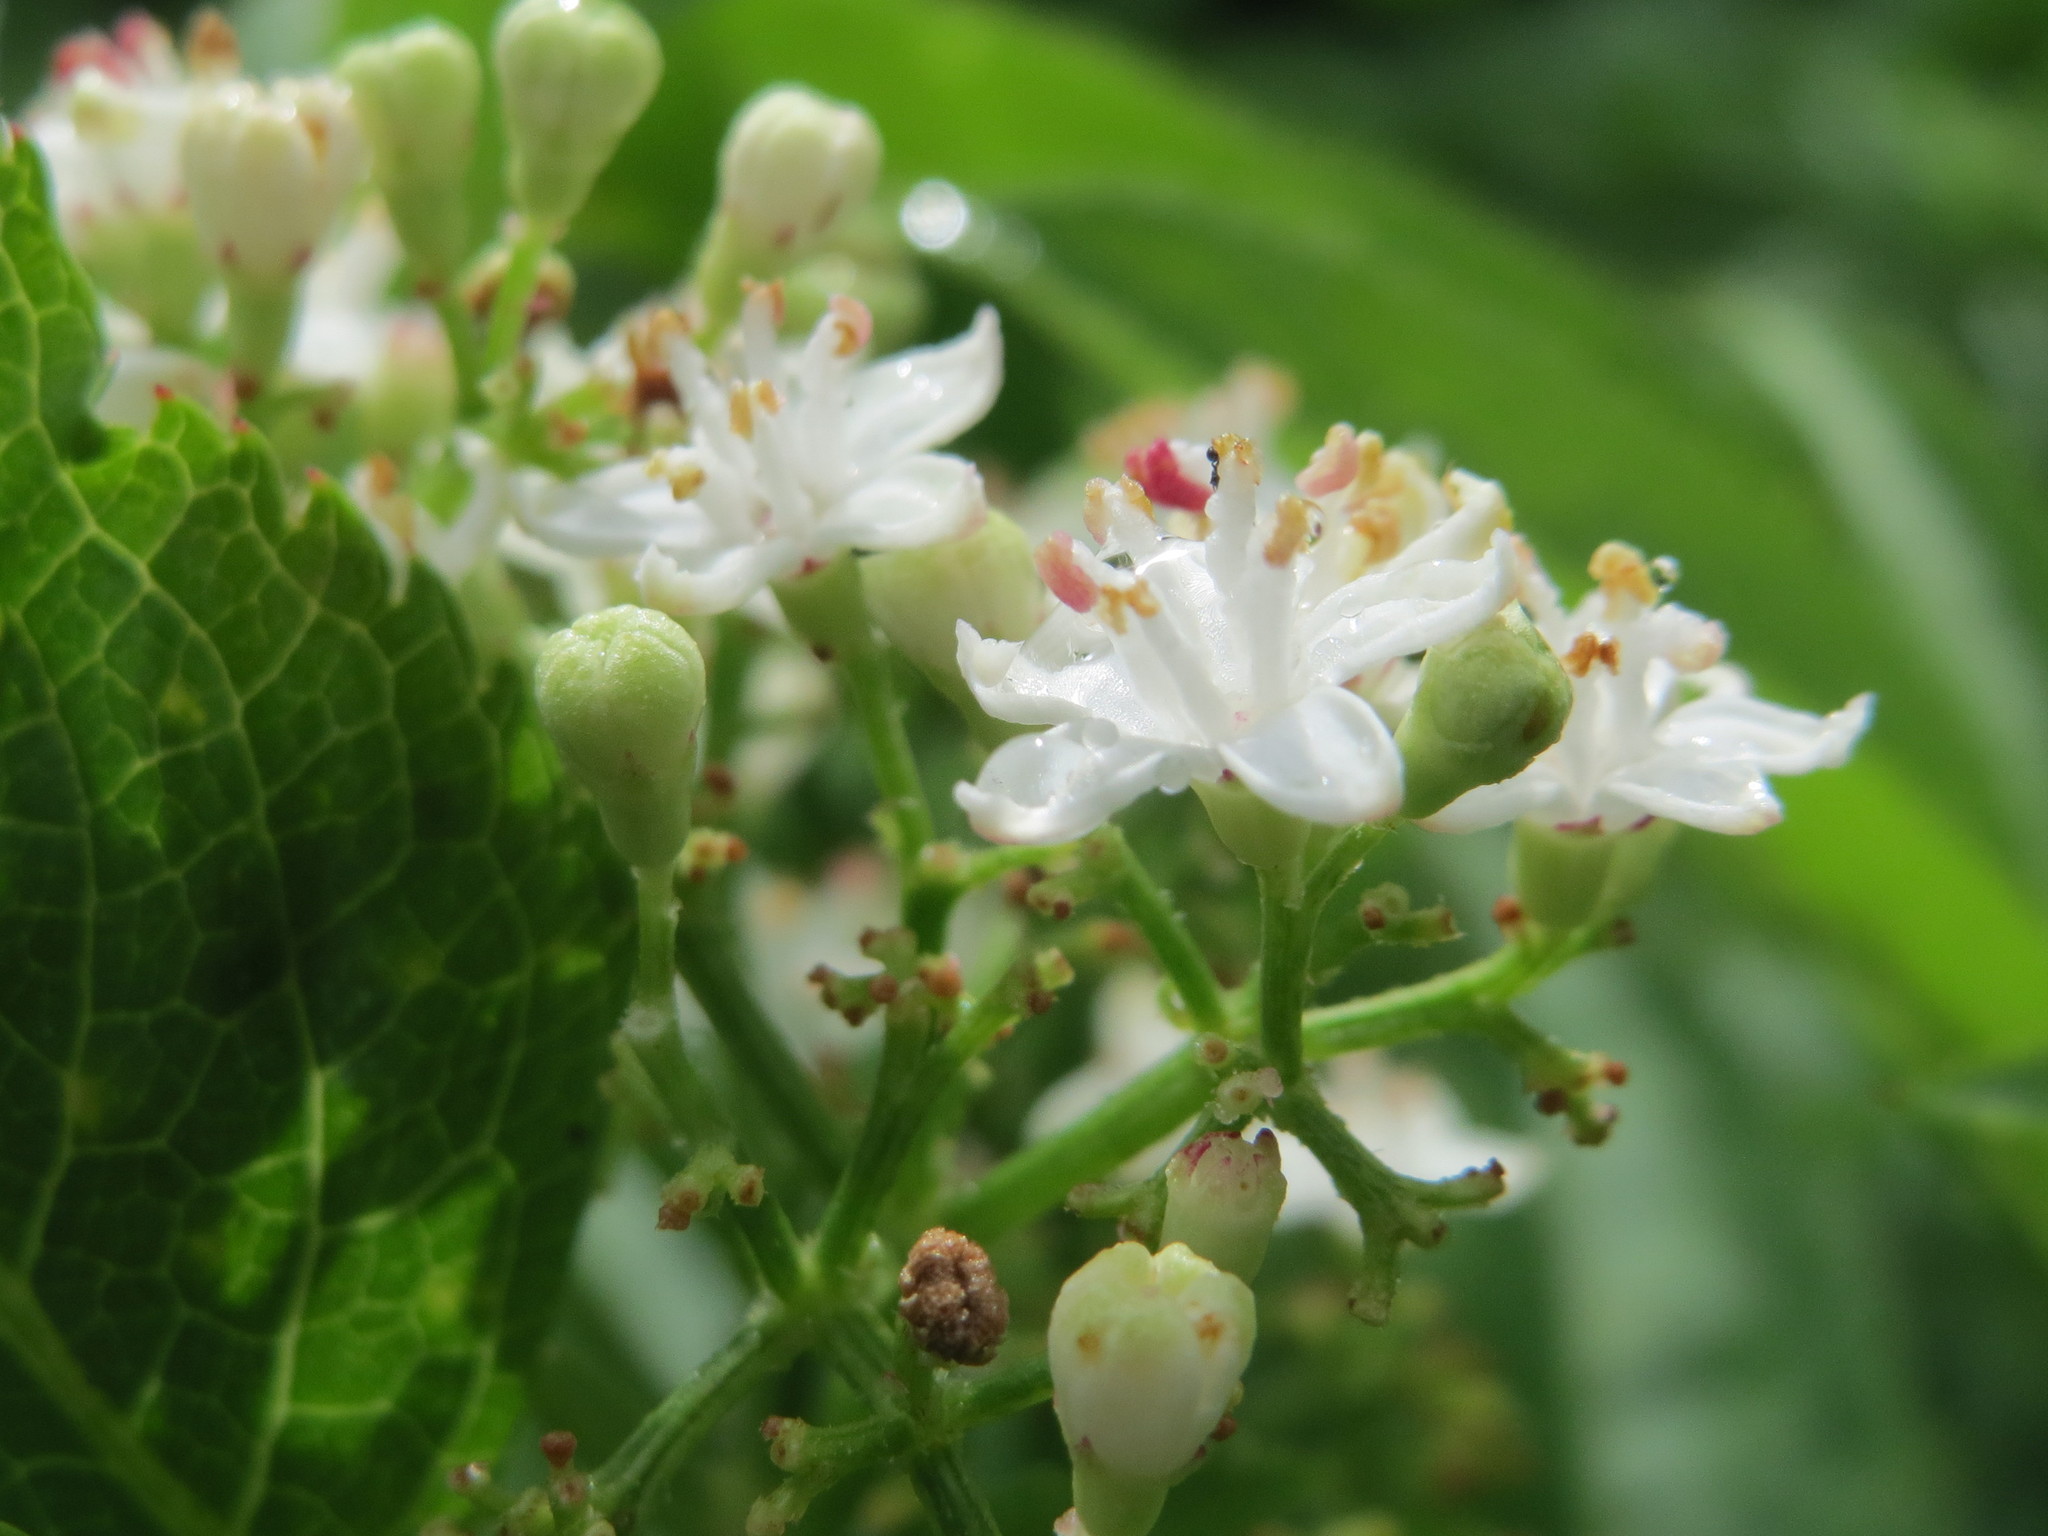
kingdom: Plantae
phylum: Tracheophyta
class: Magnoliopsida
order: Dipsacales
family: Viburnaceae
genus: Sambucus
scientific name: Sambucus ebulus
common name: Dwarf elder
